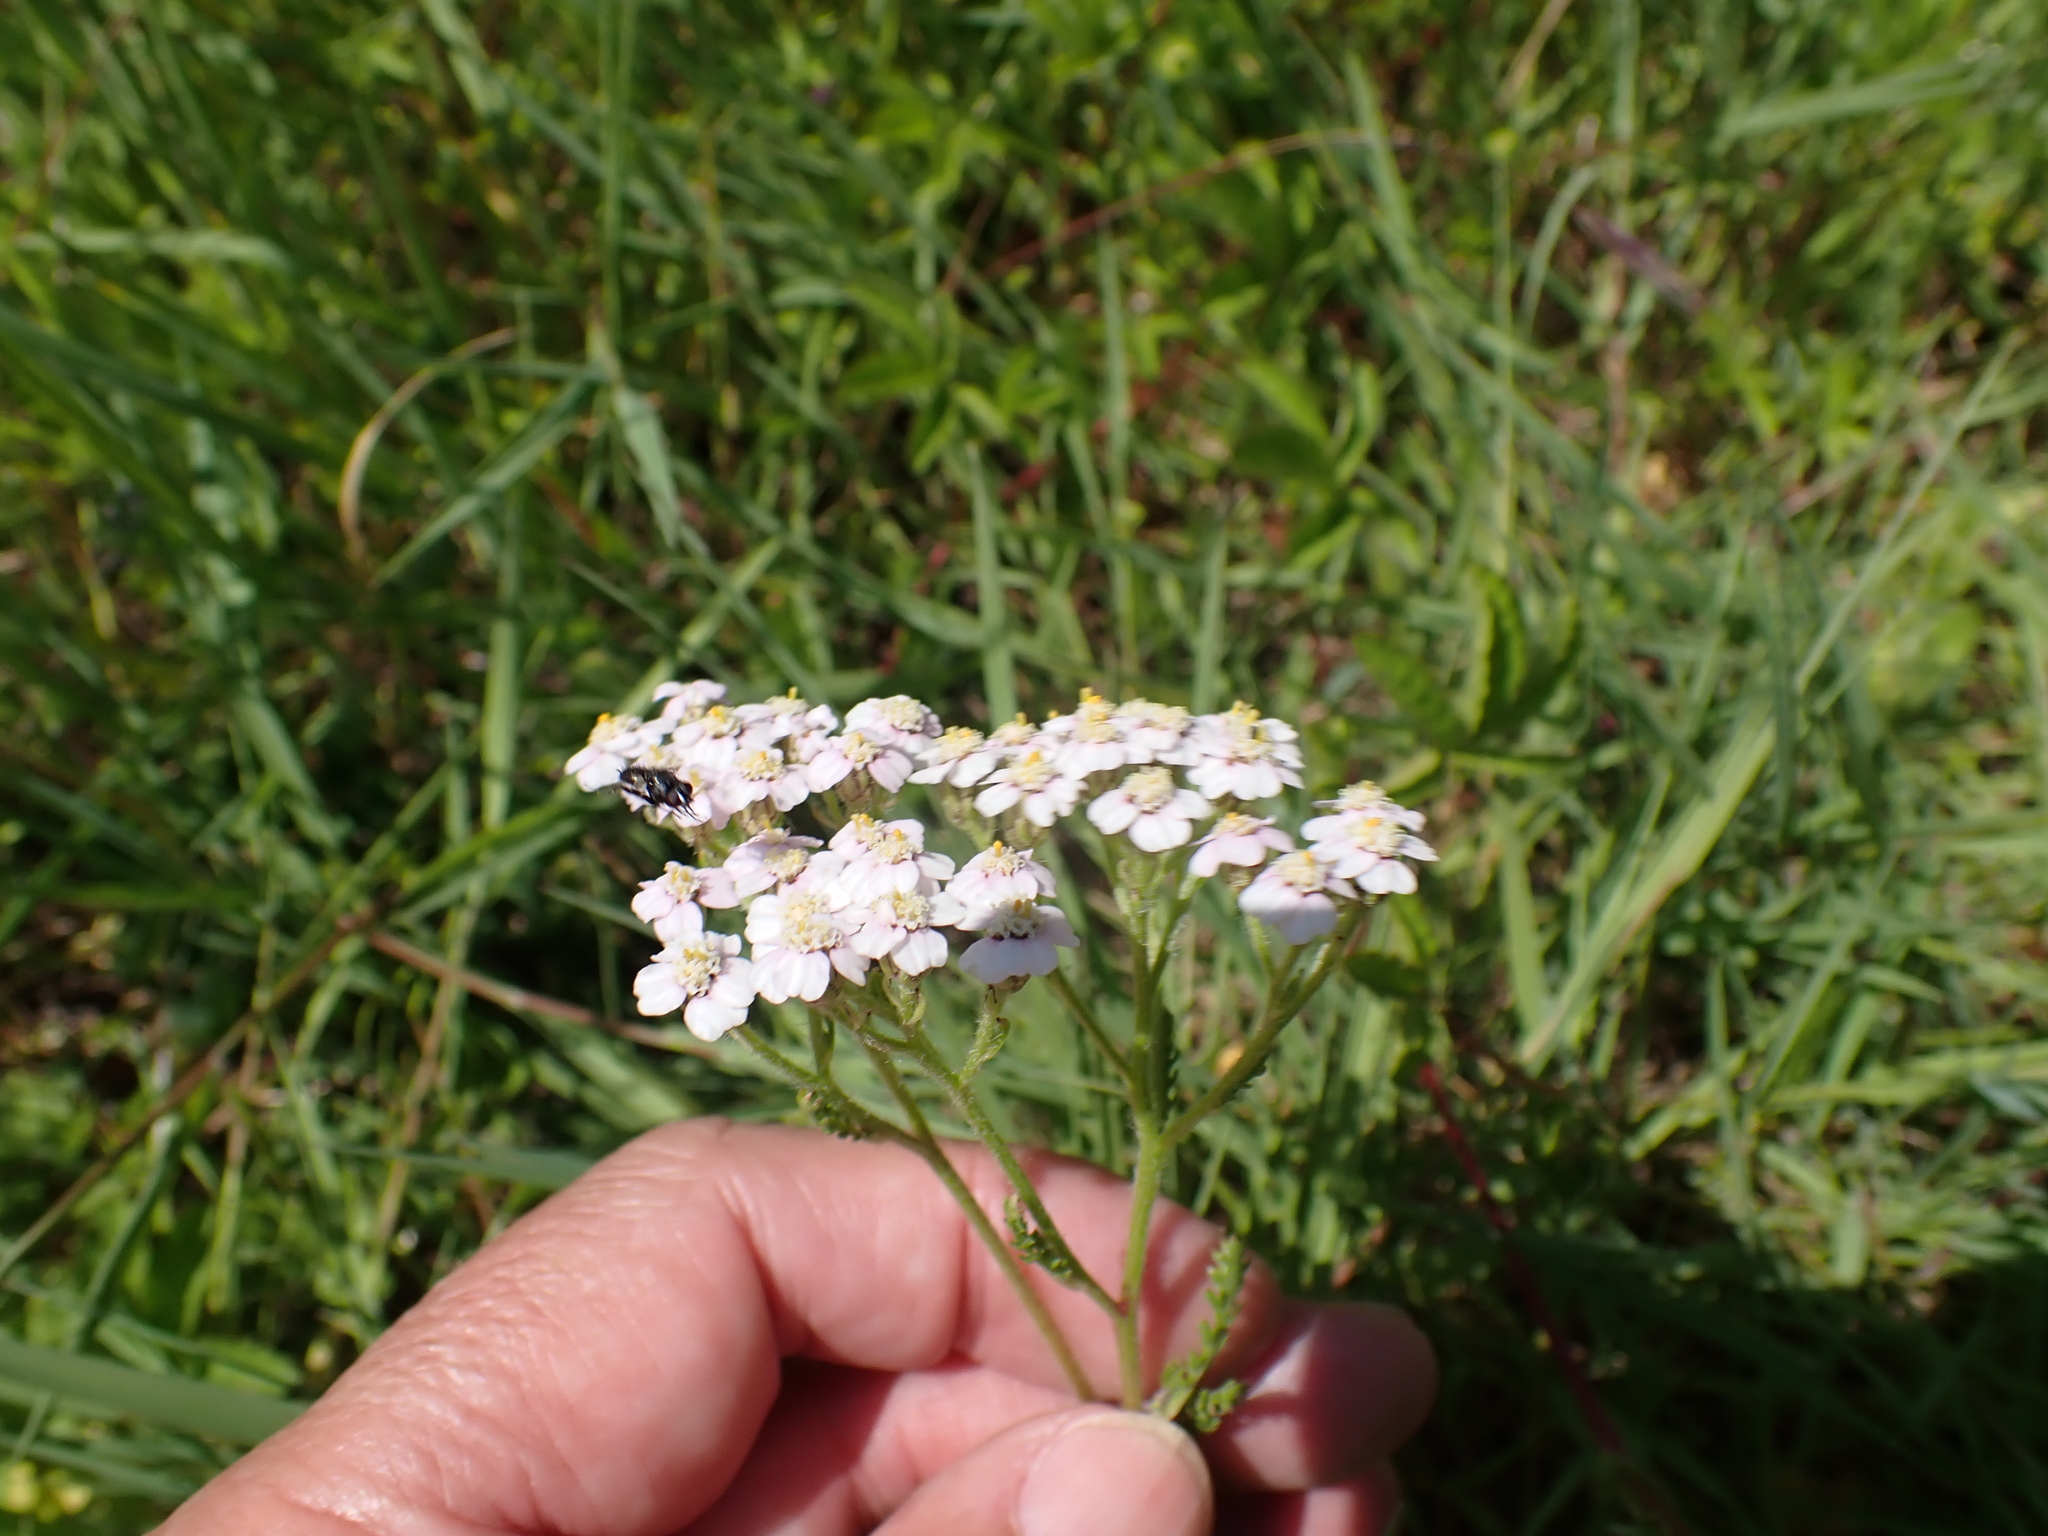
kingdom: Plantae
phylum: Tracheophyta
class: Magnoliopsida
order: Asterales
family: Asteraceae
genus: Achillea
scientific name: Achillea millefolium
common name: Yarrow
